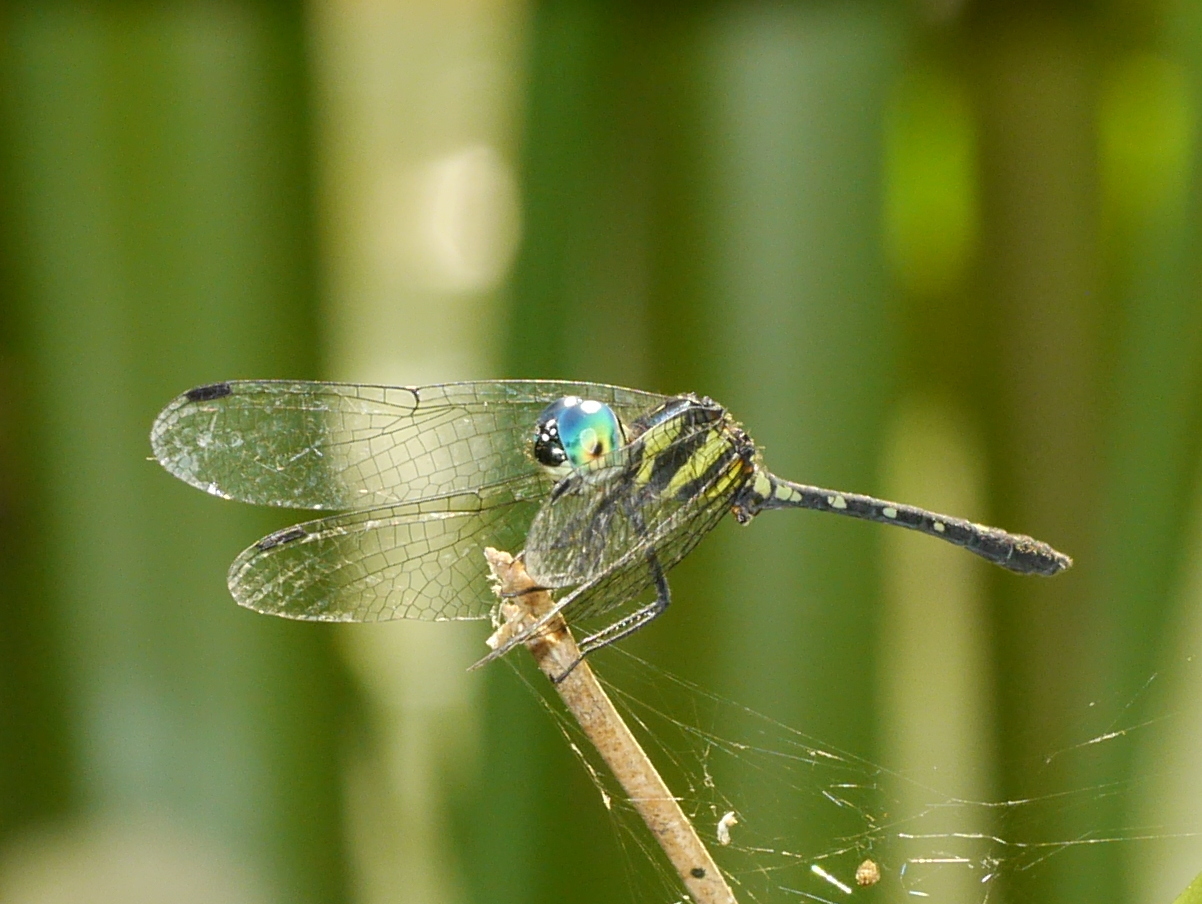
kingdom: Animalia
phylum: Arthropoda
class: Insecta
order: Odonata
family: Libellulidae
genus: Tetrathemis
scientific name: Tetrathemis hyalina
